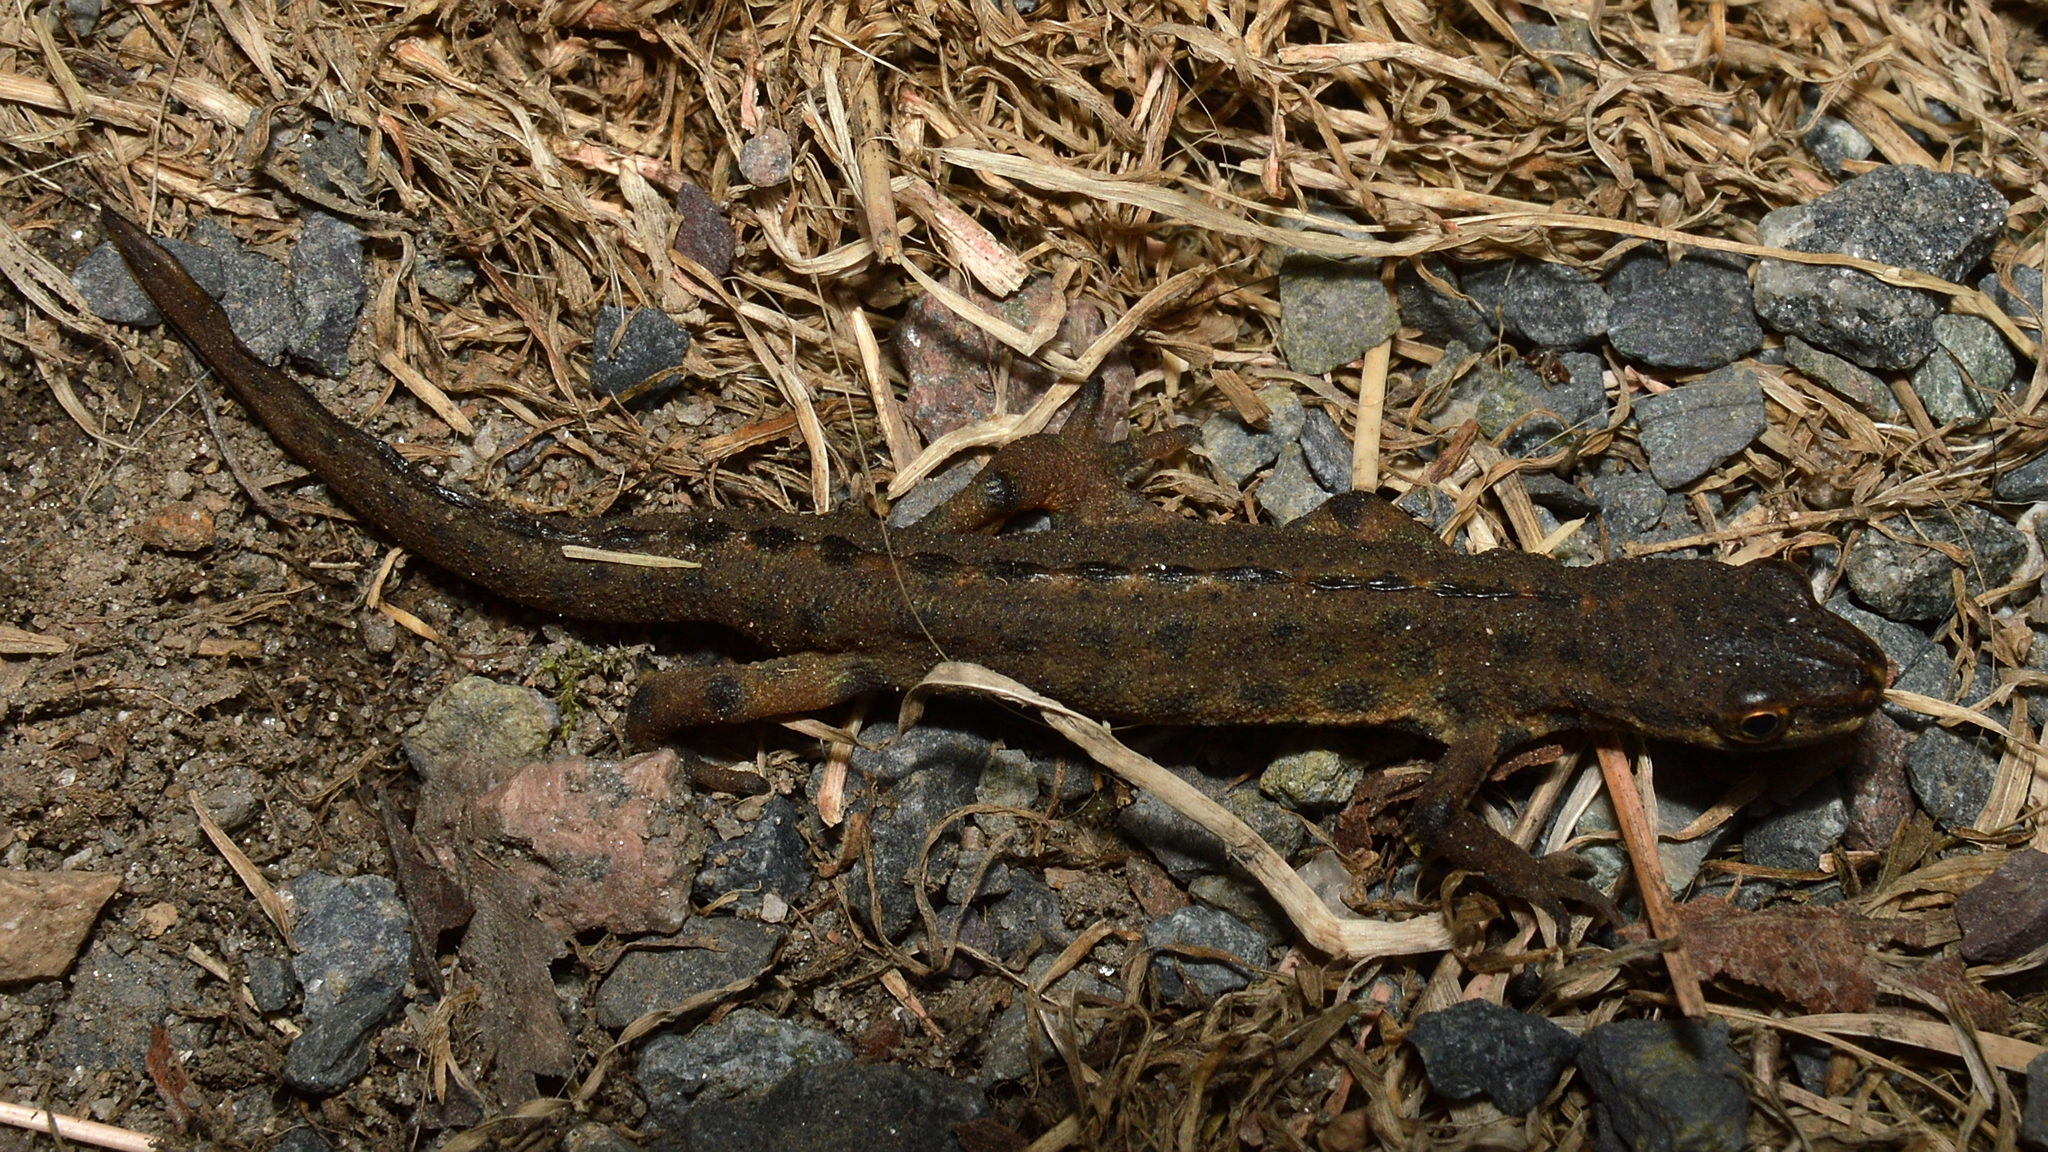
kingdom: Animalia
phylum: Chordata
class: Amphibia
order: Caudata
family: Salamandridae
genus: Lissotriton
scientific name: Lissotriton vulgaris
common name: Smooth newt
